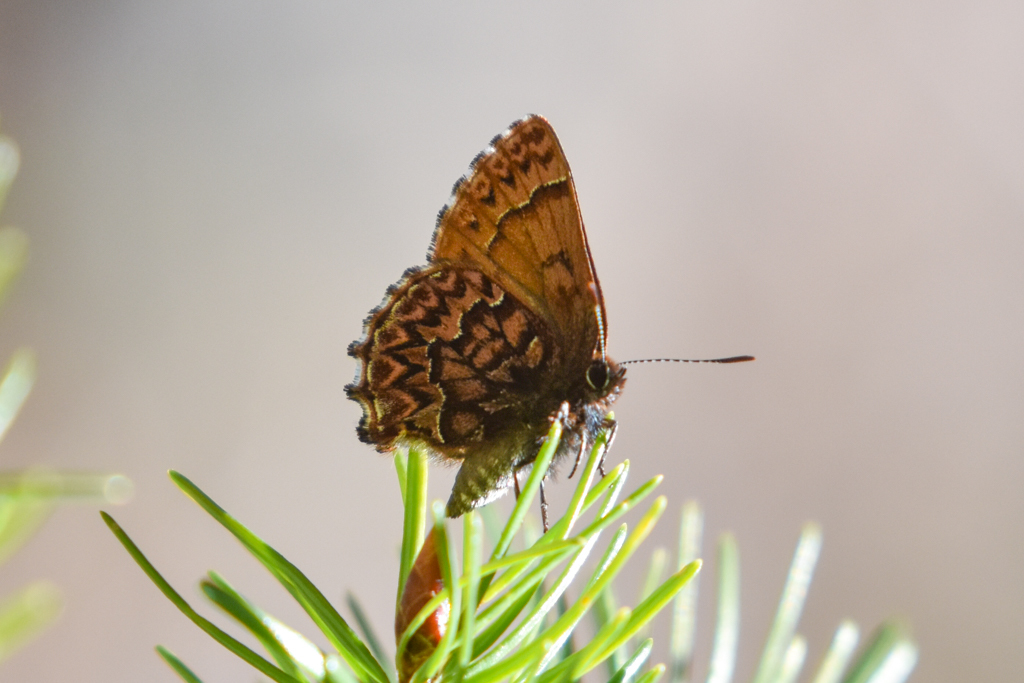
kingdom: Animalia
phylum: Arthropoda
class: Insecta
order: Lepidoptera
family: Lycaenidae
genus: Incisalia
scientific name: Incisalia eryphon
